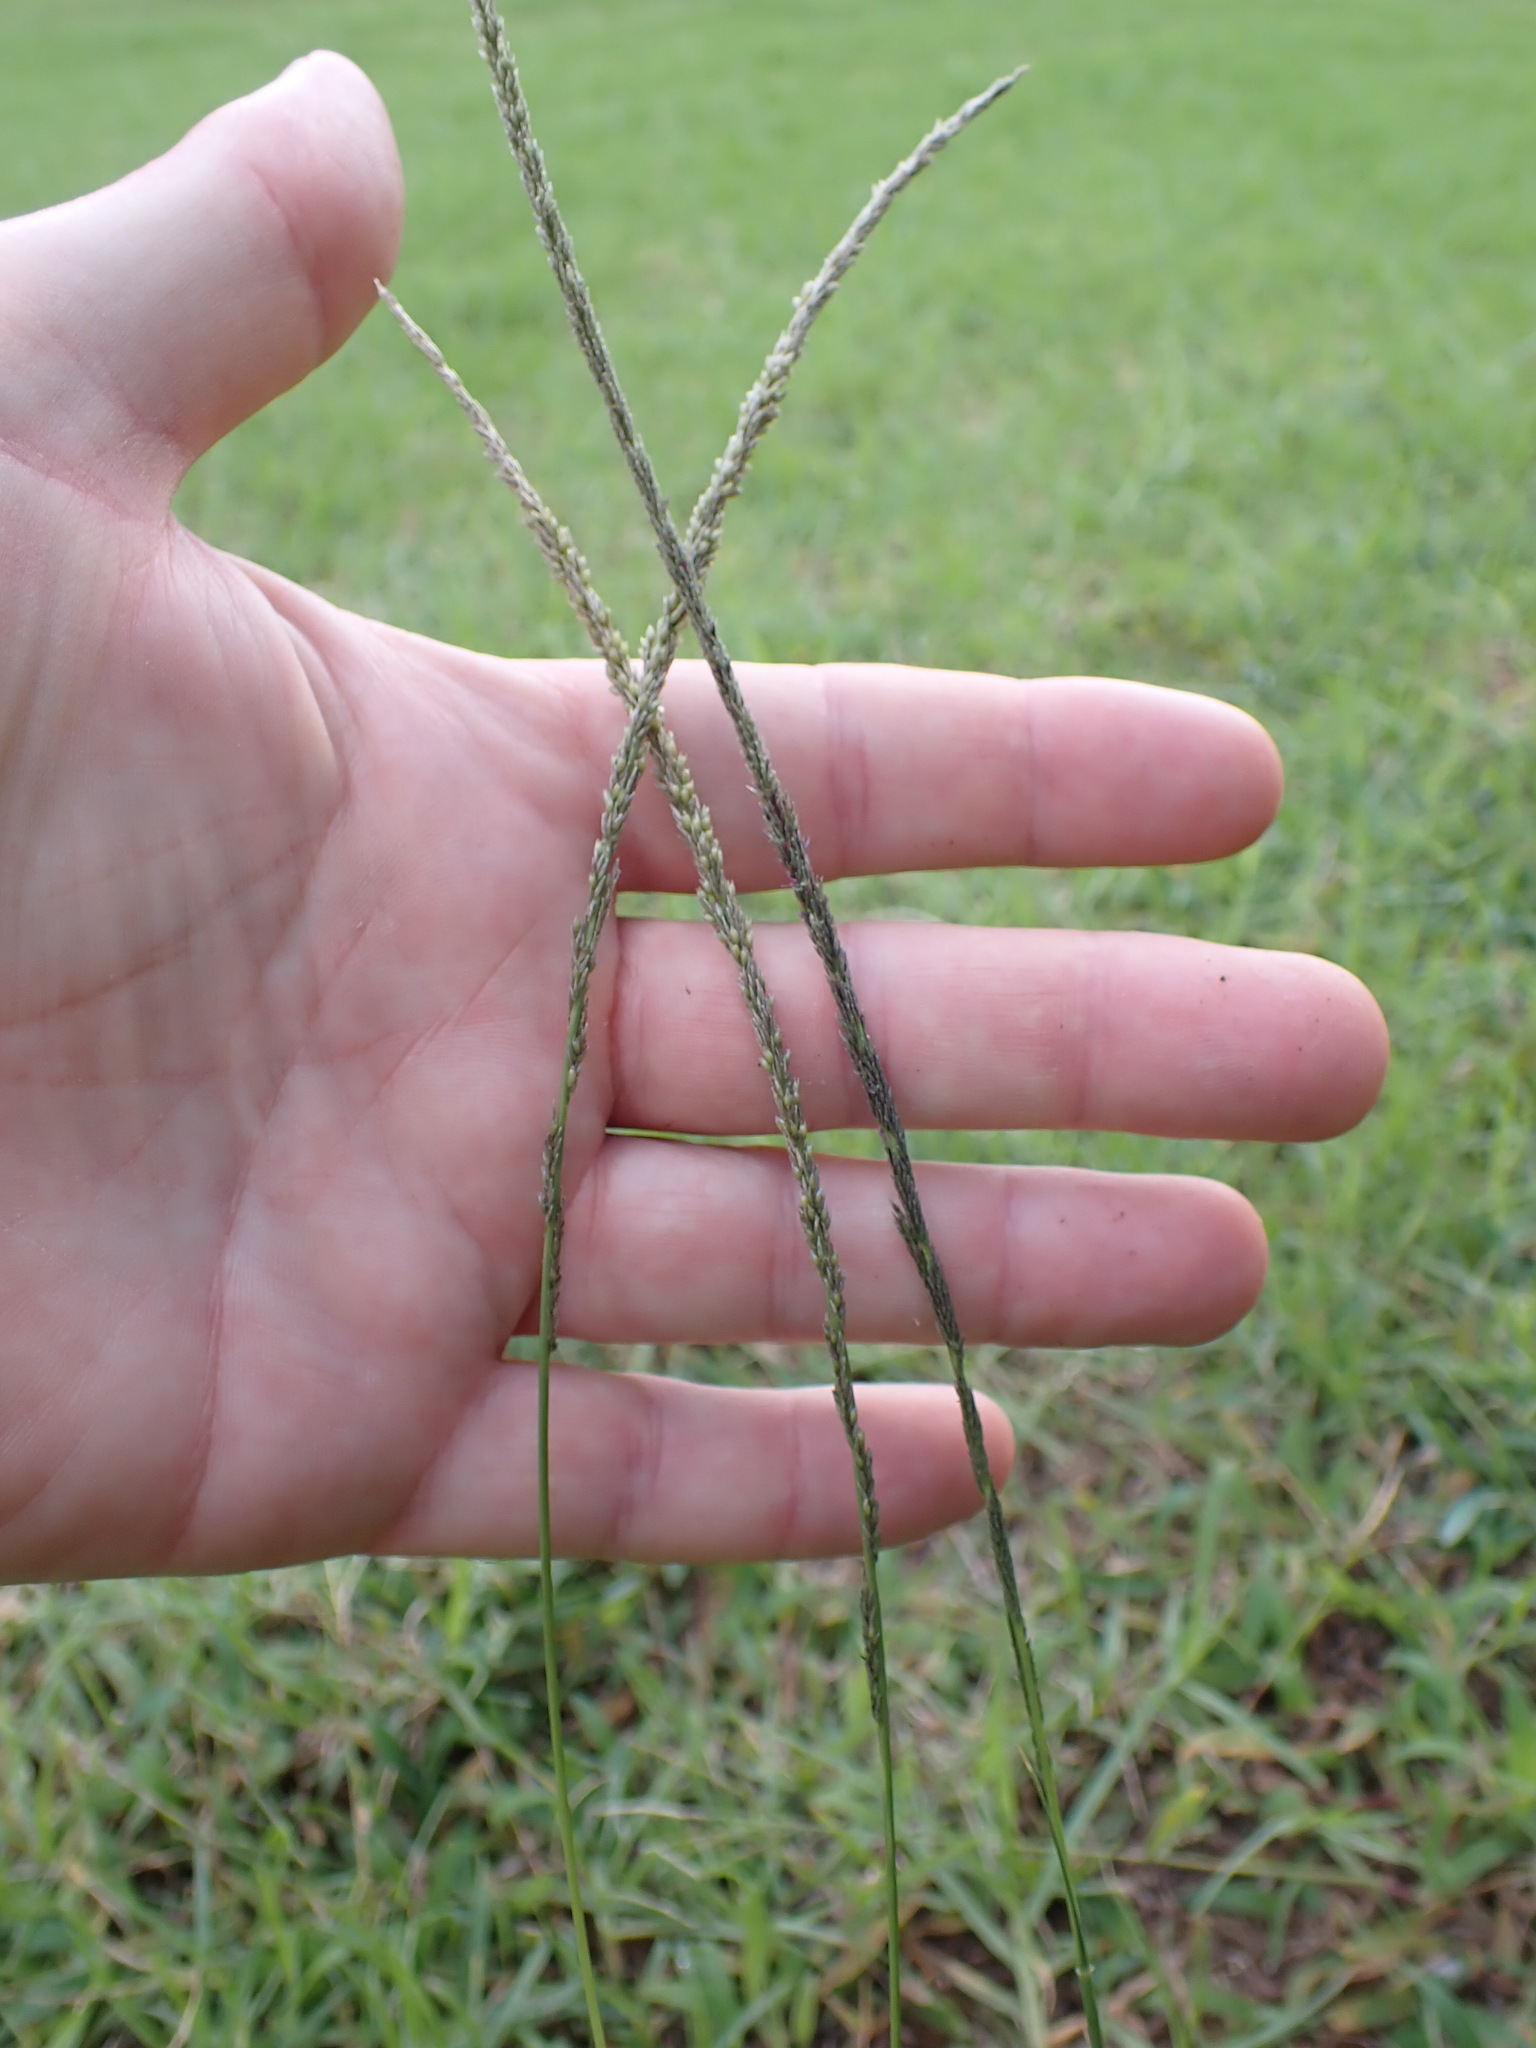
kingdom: Plantae
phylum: Tracheophyta
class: Liliopsida
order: Poales
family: Poaceae
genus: Sporobolus
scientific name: Sporobolus africanus
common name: African dropseed
